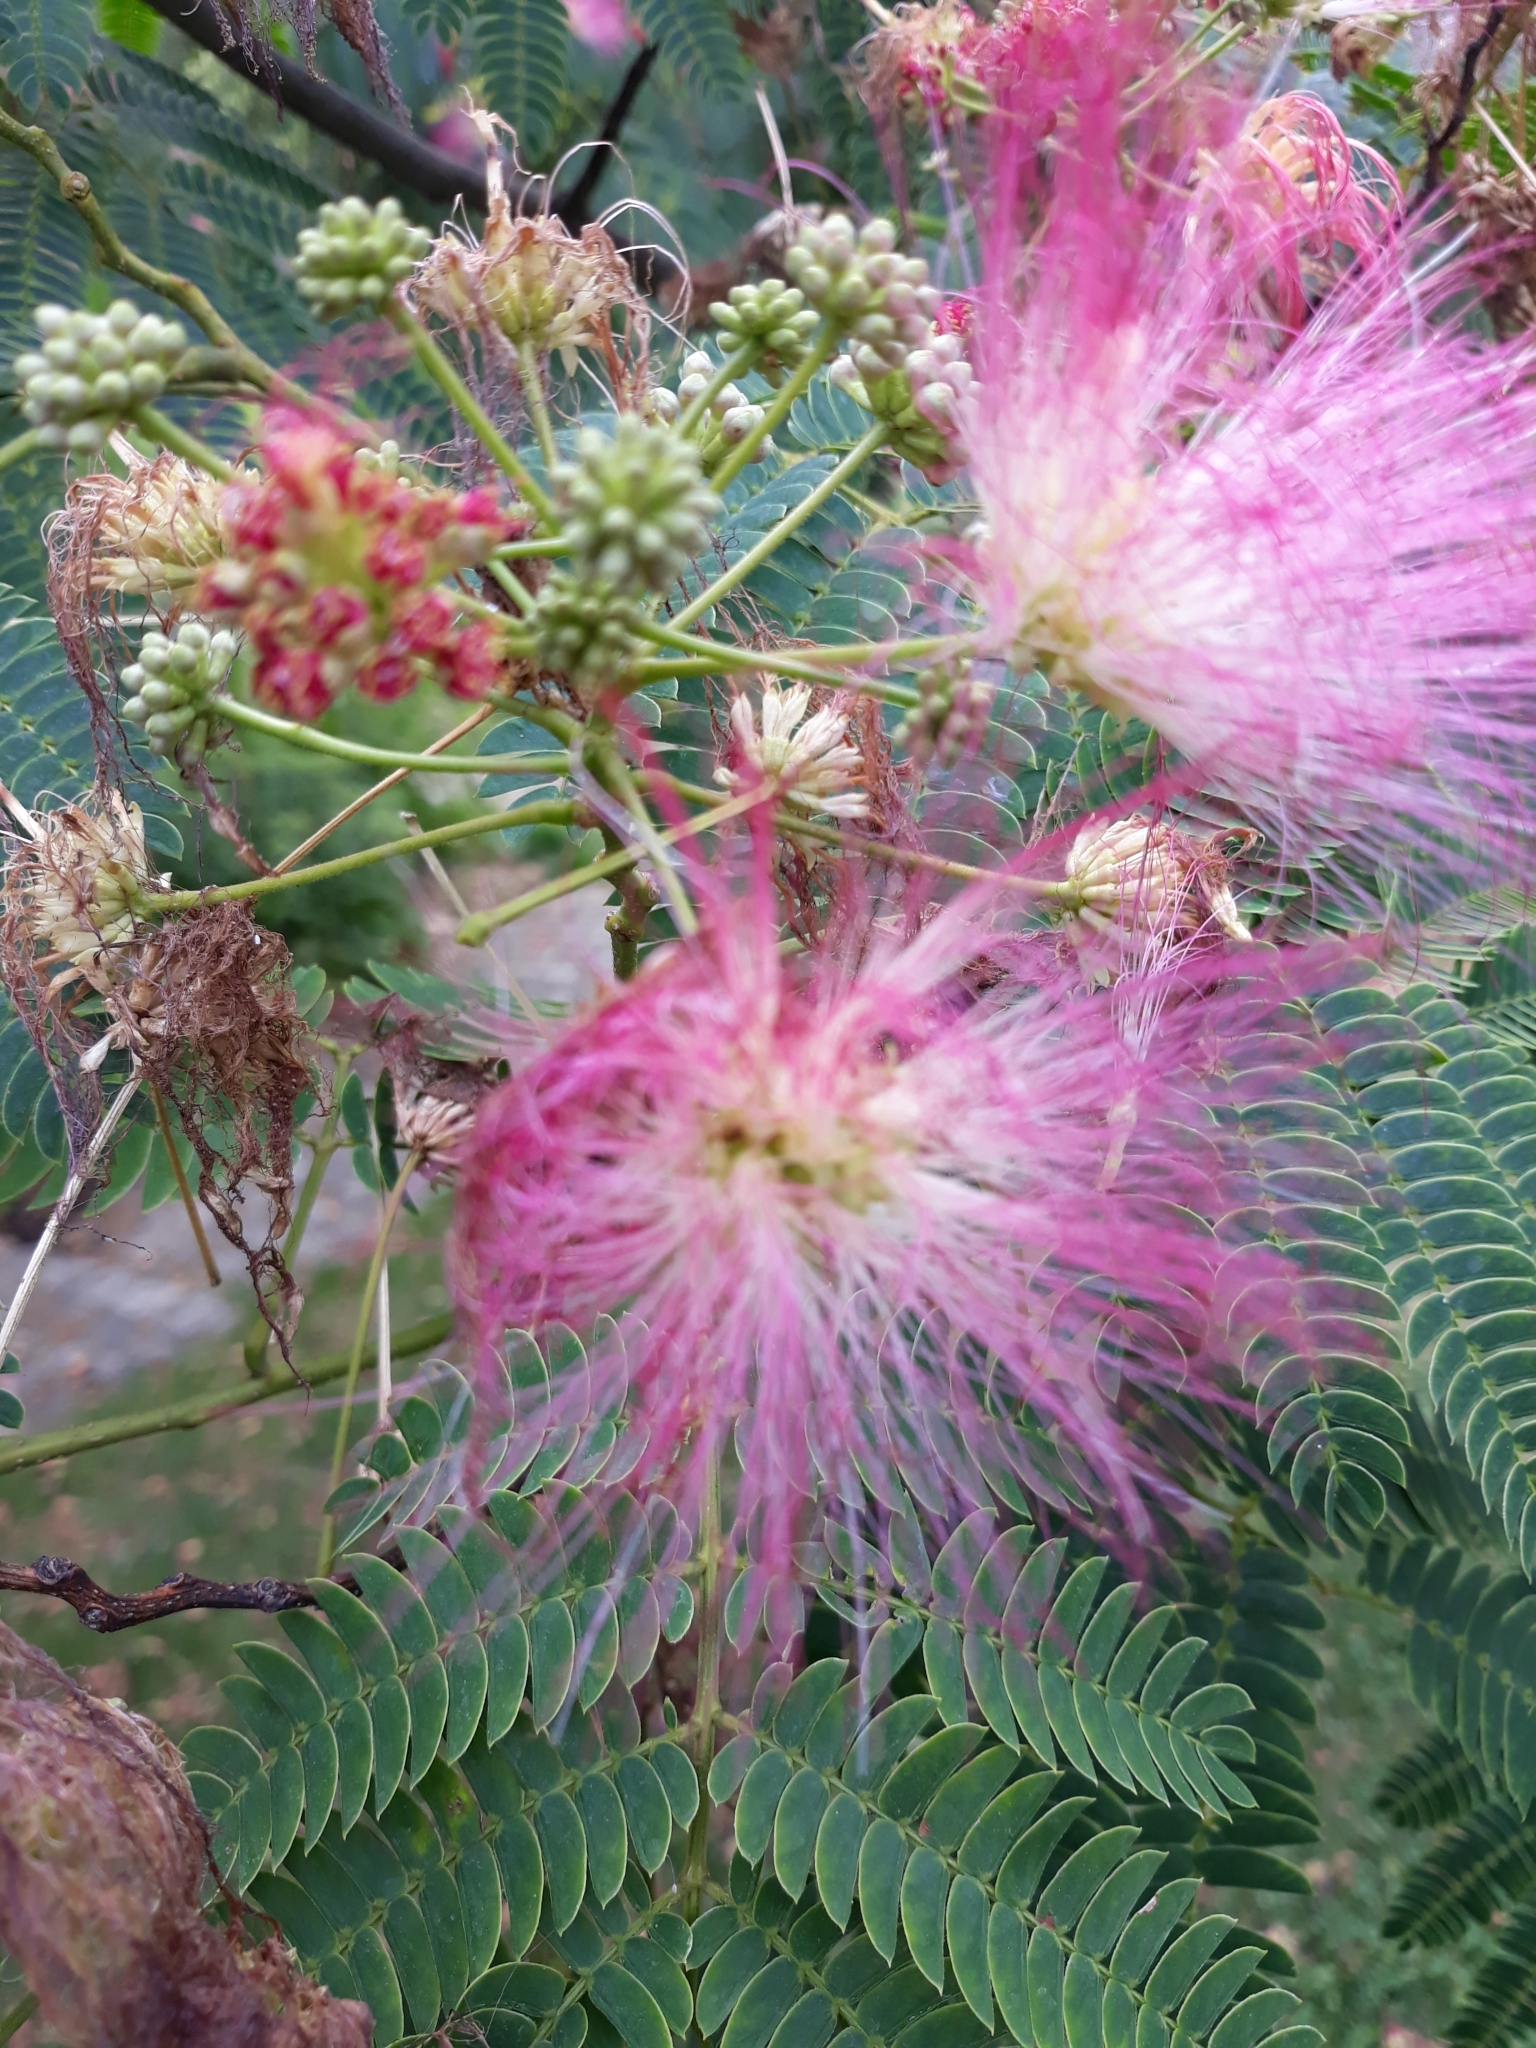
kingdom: Plantae
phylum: Tracheophyta
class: Magnoliopsida
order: Fabales
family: Fabaceae
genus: Albizia
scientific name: Albizia julibrissin
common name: Silktree
